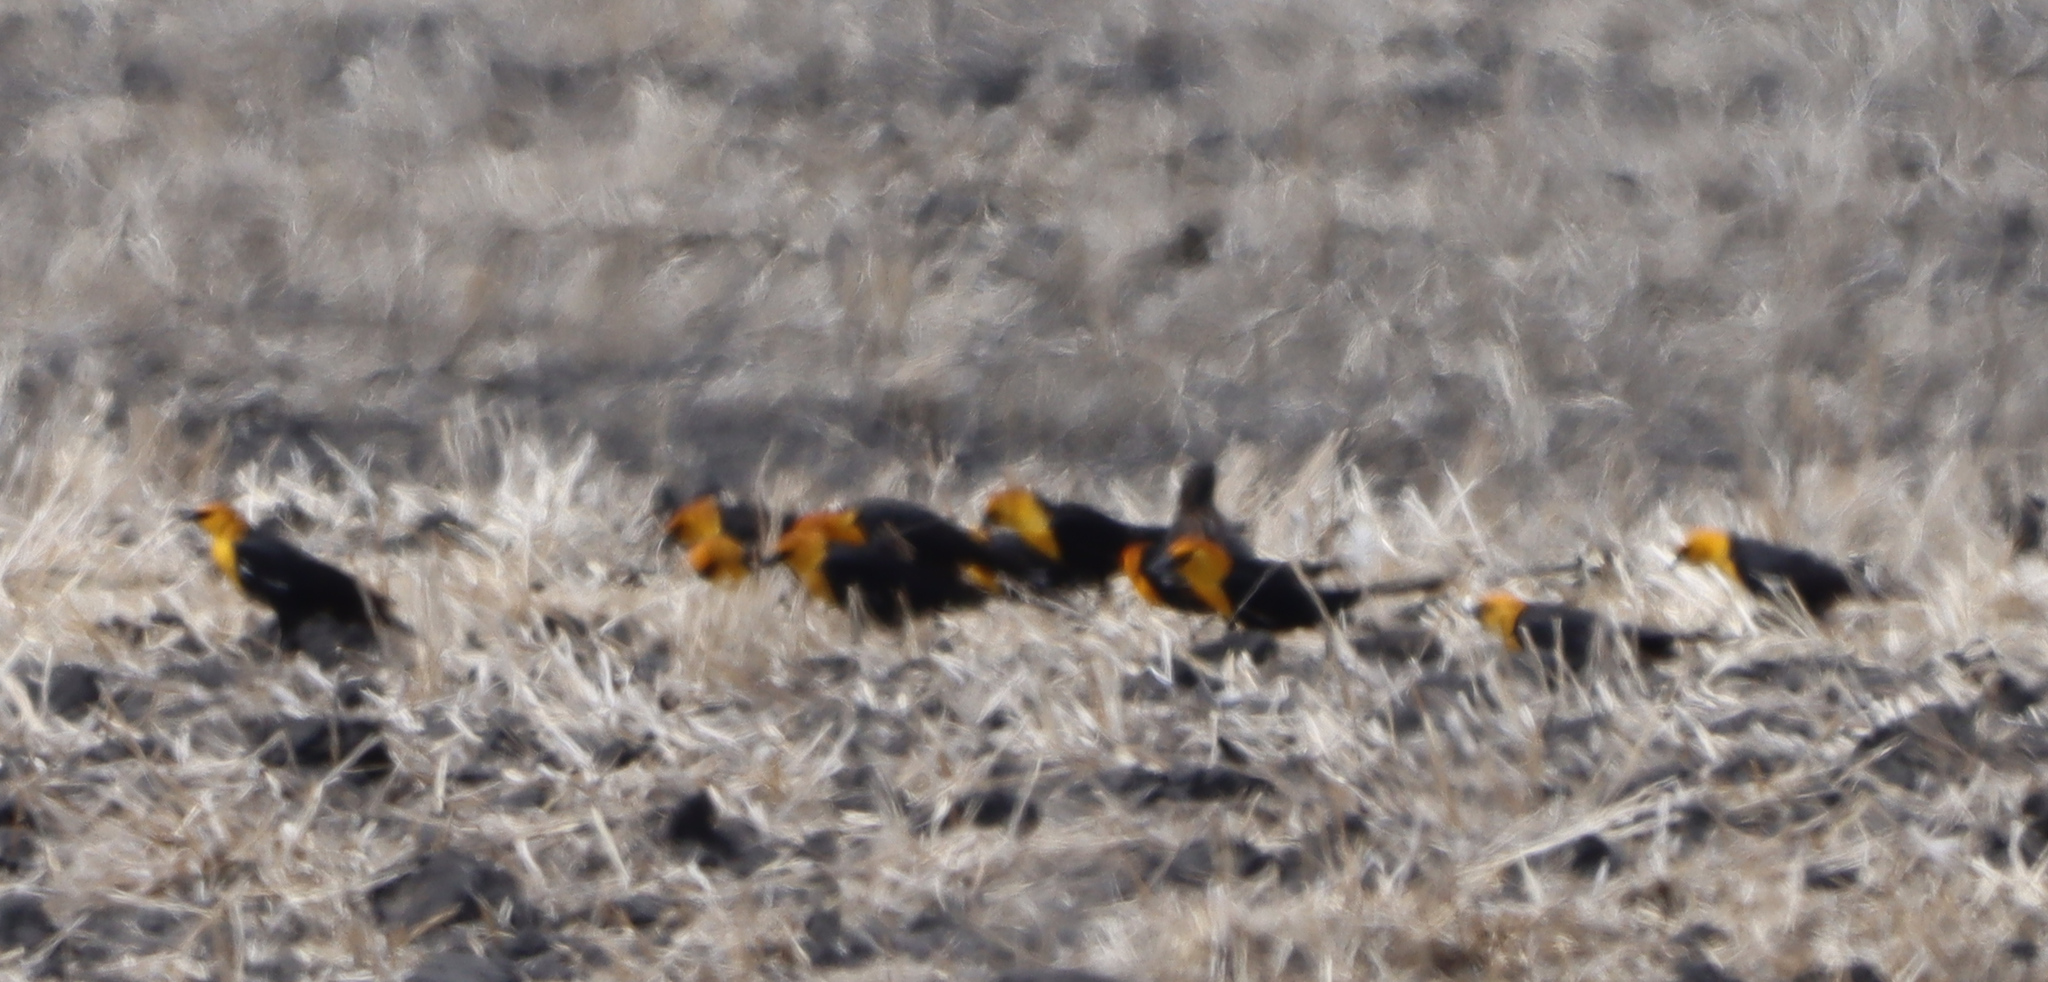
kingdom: Animalia
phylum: Chordata
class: Aves
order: Passeriformes
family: Icteridae
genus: Xanthocephalus
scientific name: Xanthocephalus xanthocephalus
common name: Yellow-headed blackbird
